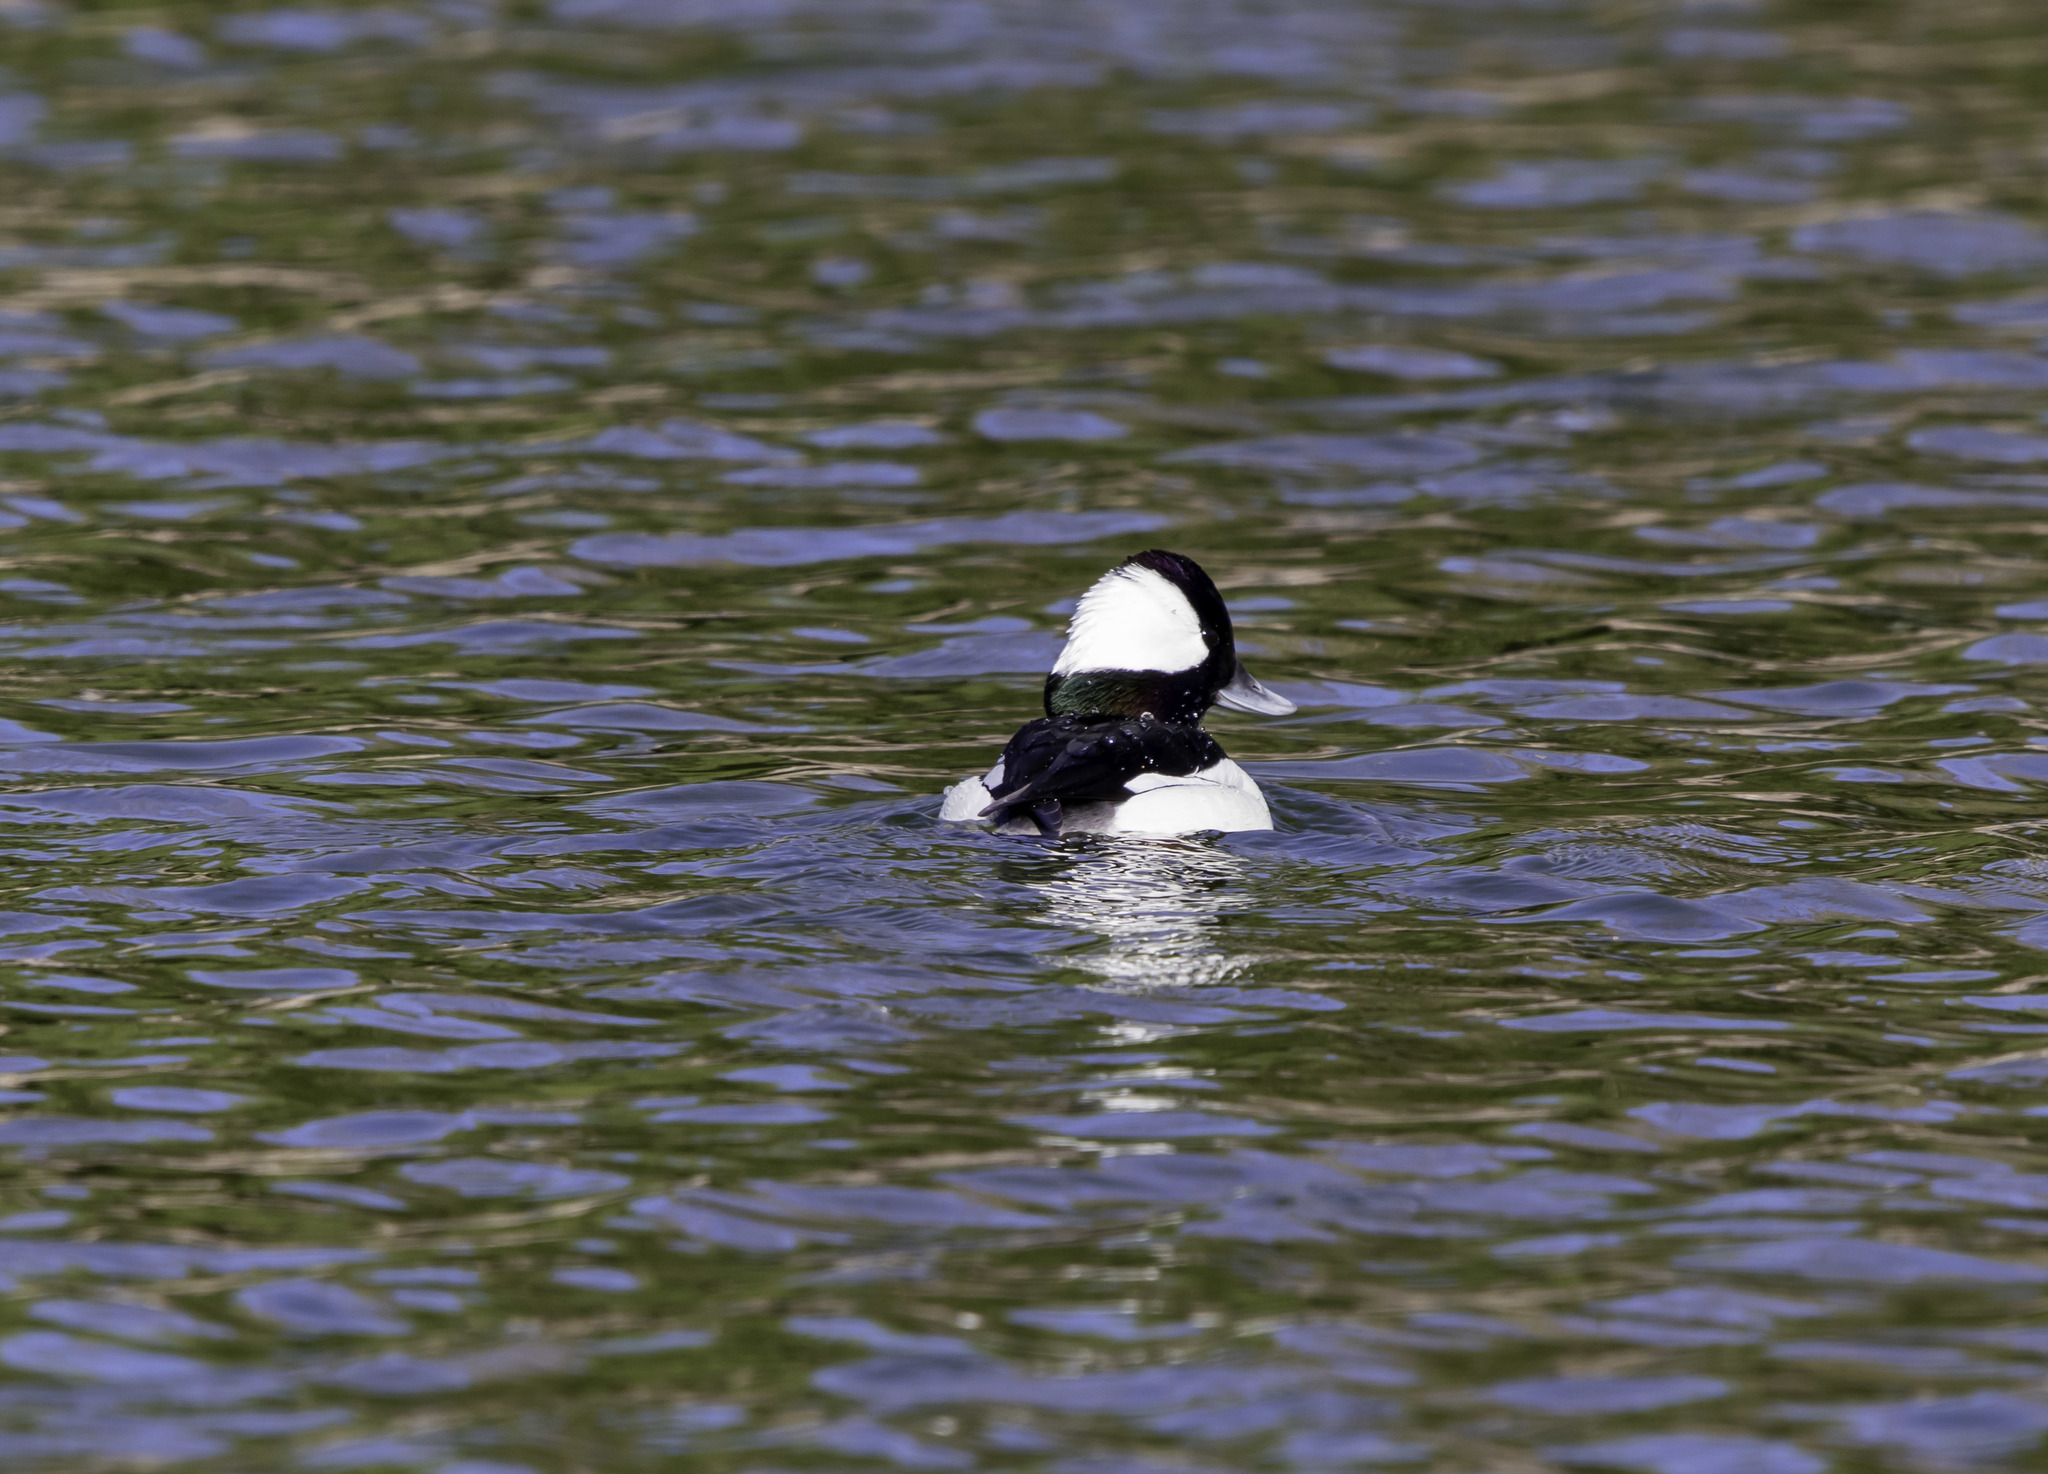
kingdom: Animalia
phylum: Chordata
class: Aves
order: Anseriformes
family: Anatidae
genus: Bucephala
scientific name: Bucephala albeola
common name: Bufflehead
